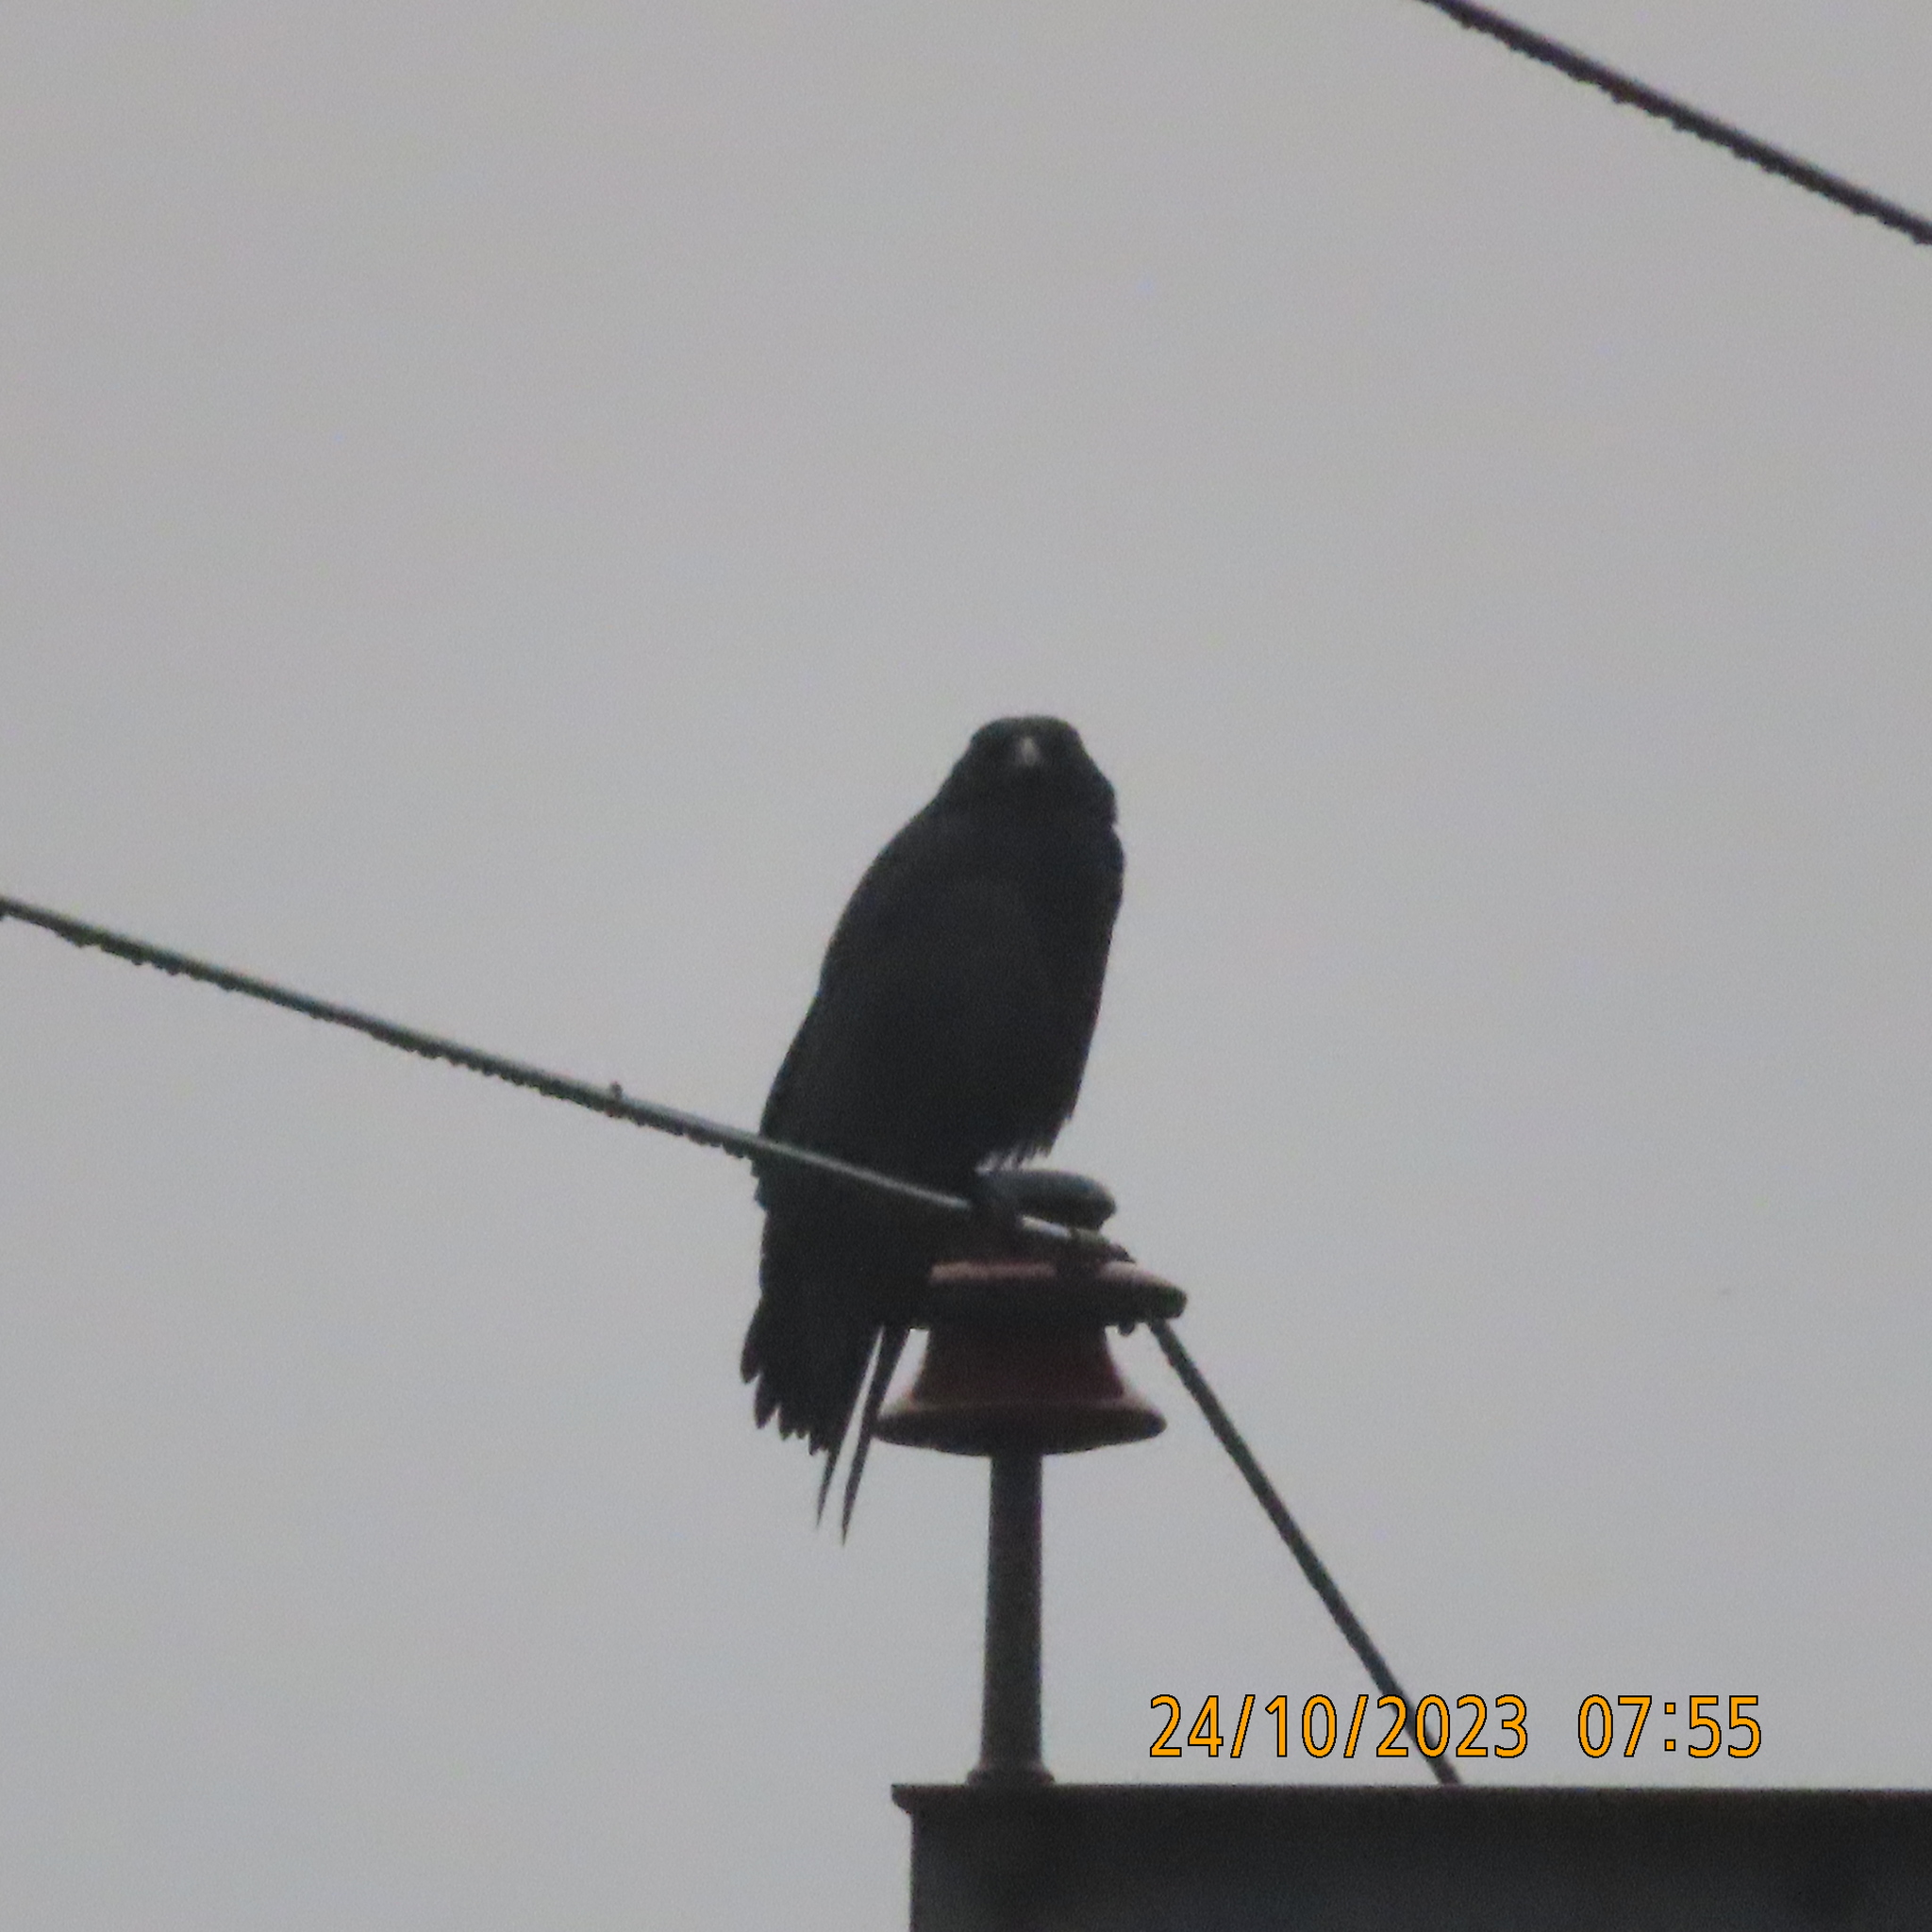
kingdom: Animalia
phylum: Chordata
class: Aves
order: Passeriformes
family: Corvidae
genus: Corvus
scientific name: Corvus corone
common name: Carrion crow
